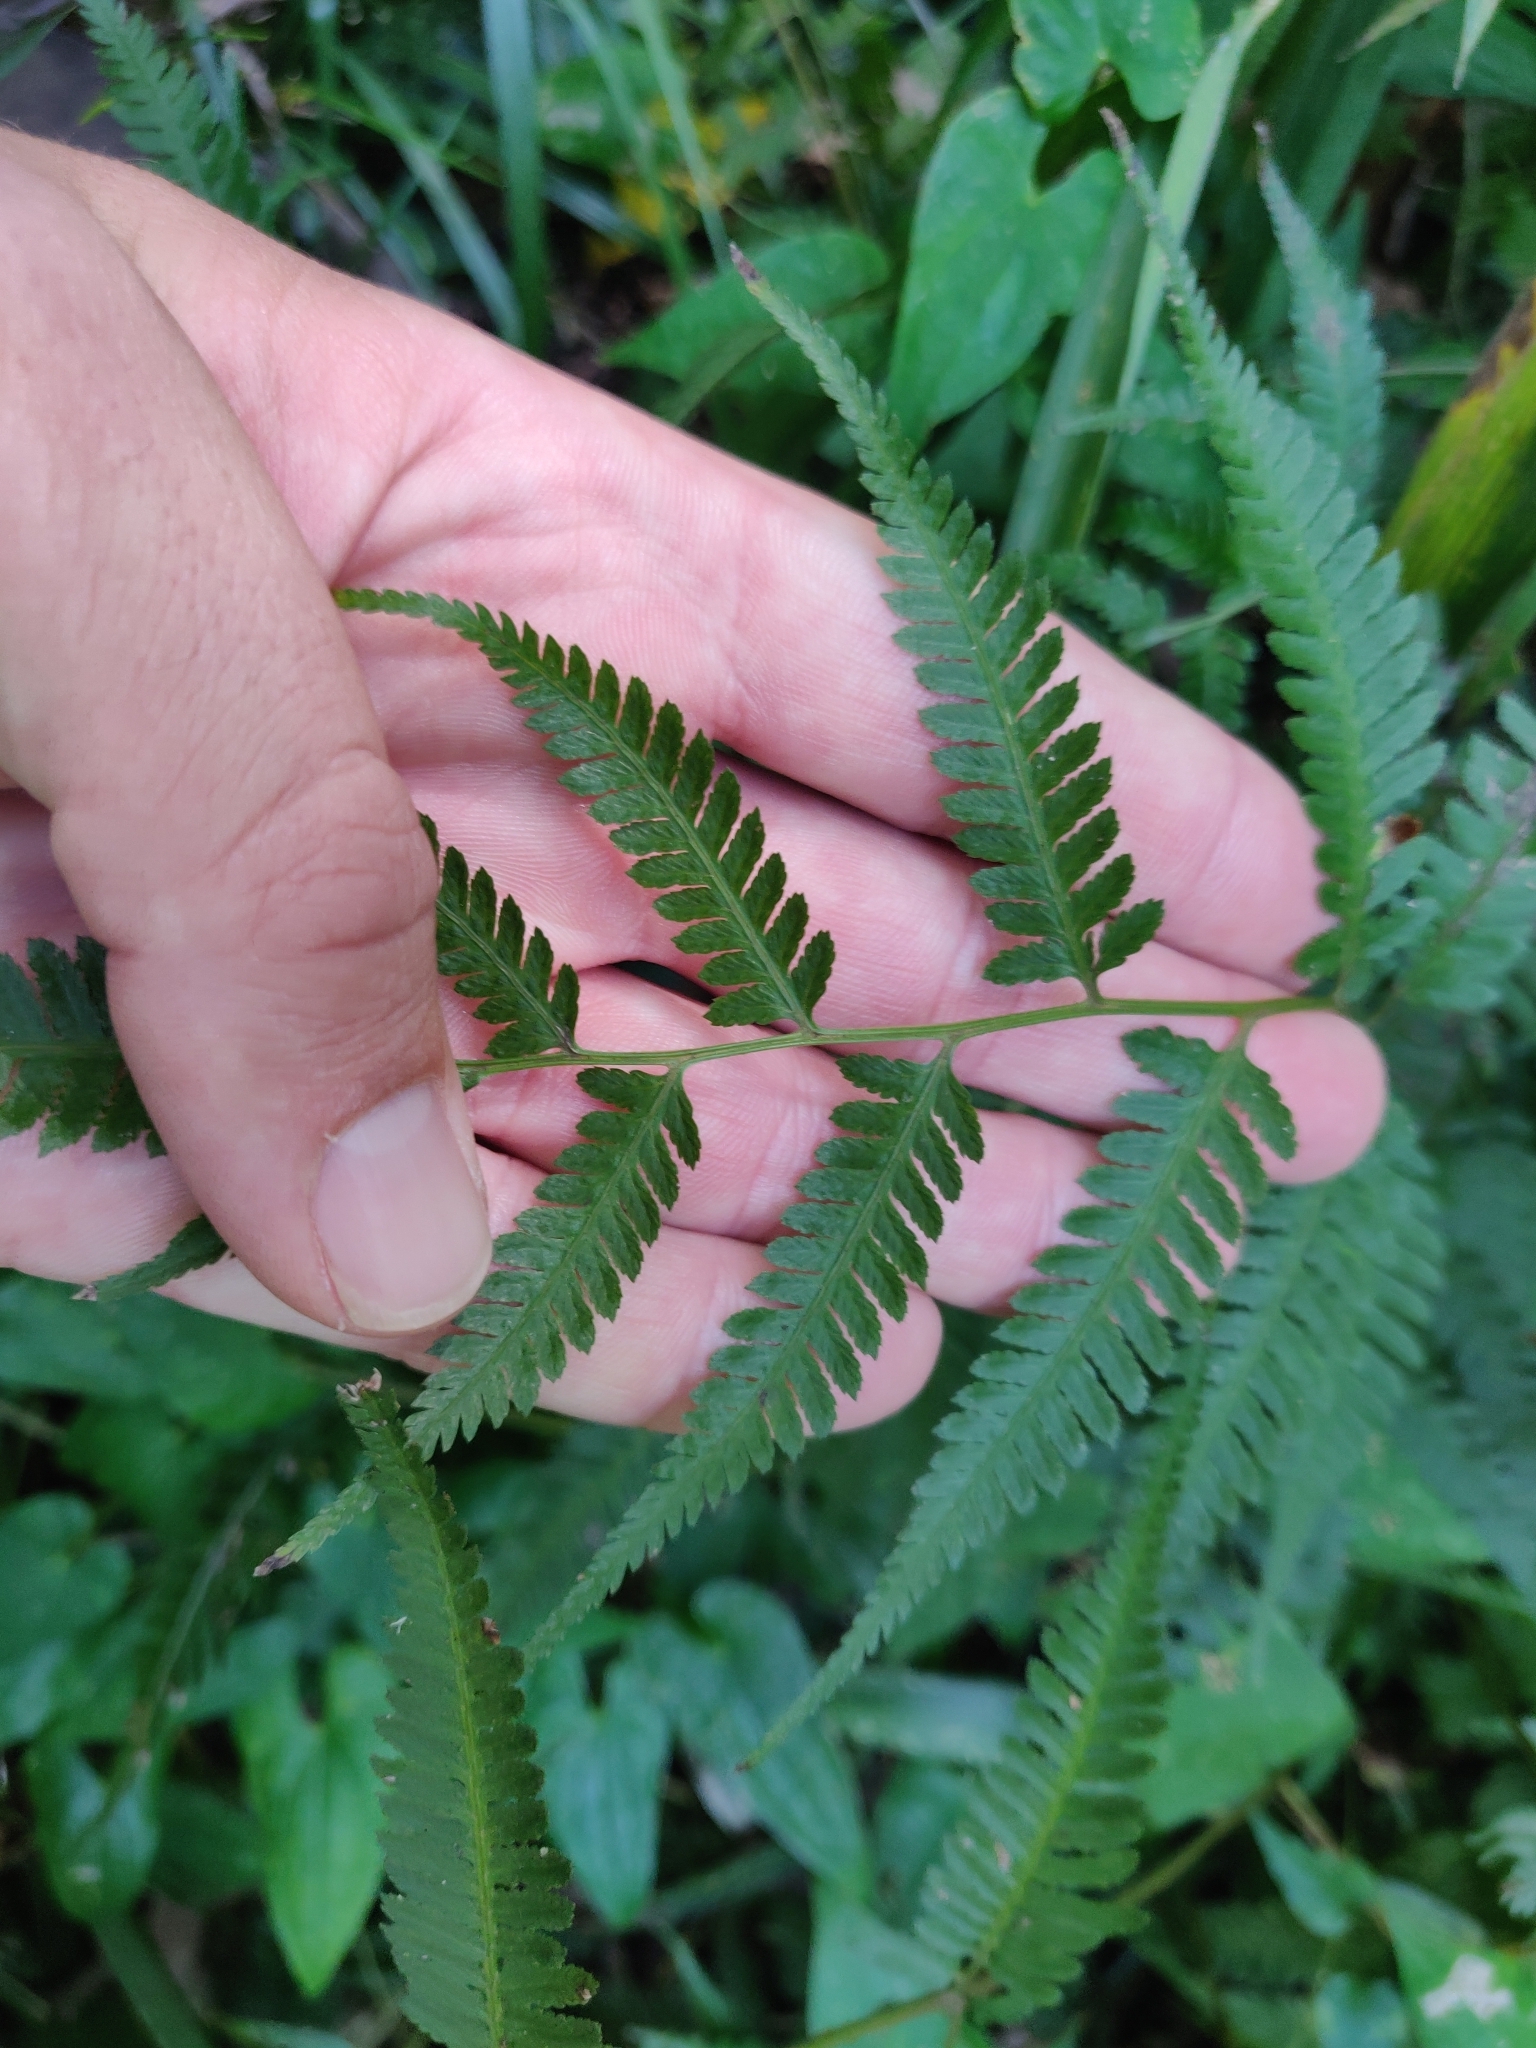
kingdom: Plantae
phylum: Tracheophyta
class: Polypodiopsida
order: Polypodiales
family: Athyriaceae
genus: Deparia
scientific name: Deparia petersenii
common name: Japanese false spleenwort
